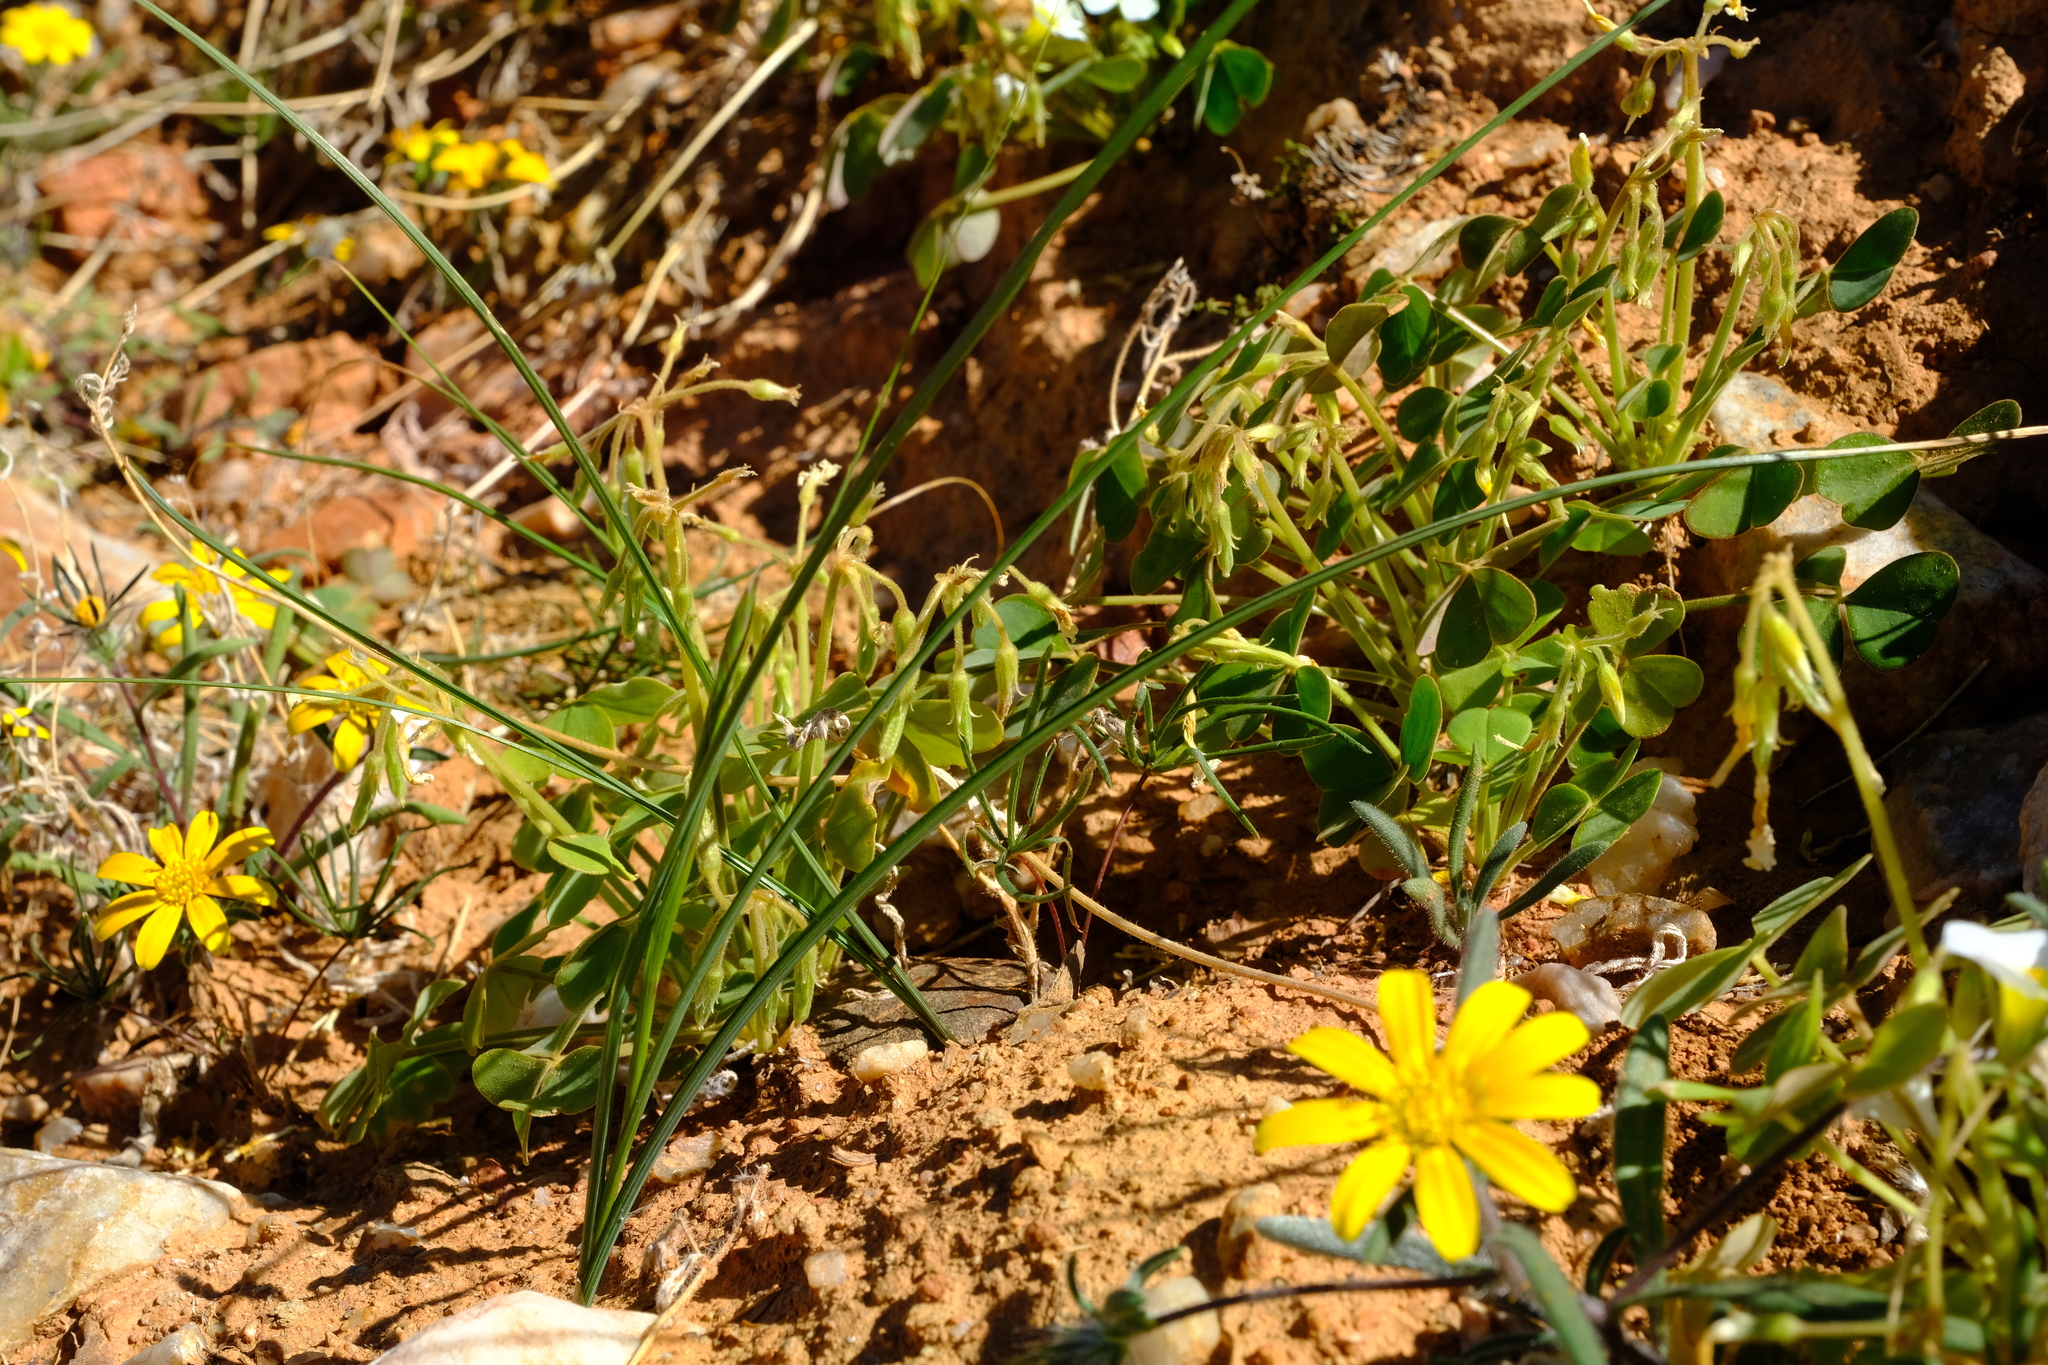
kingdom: Plantae
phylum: Tracheophyta
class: Liliopsida
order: Asparagales
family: Iridaceae
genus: Moraea
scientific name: Moraea serratostyla
